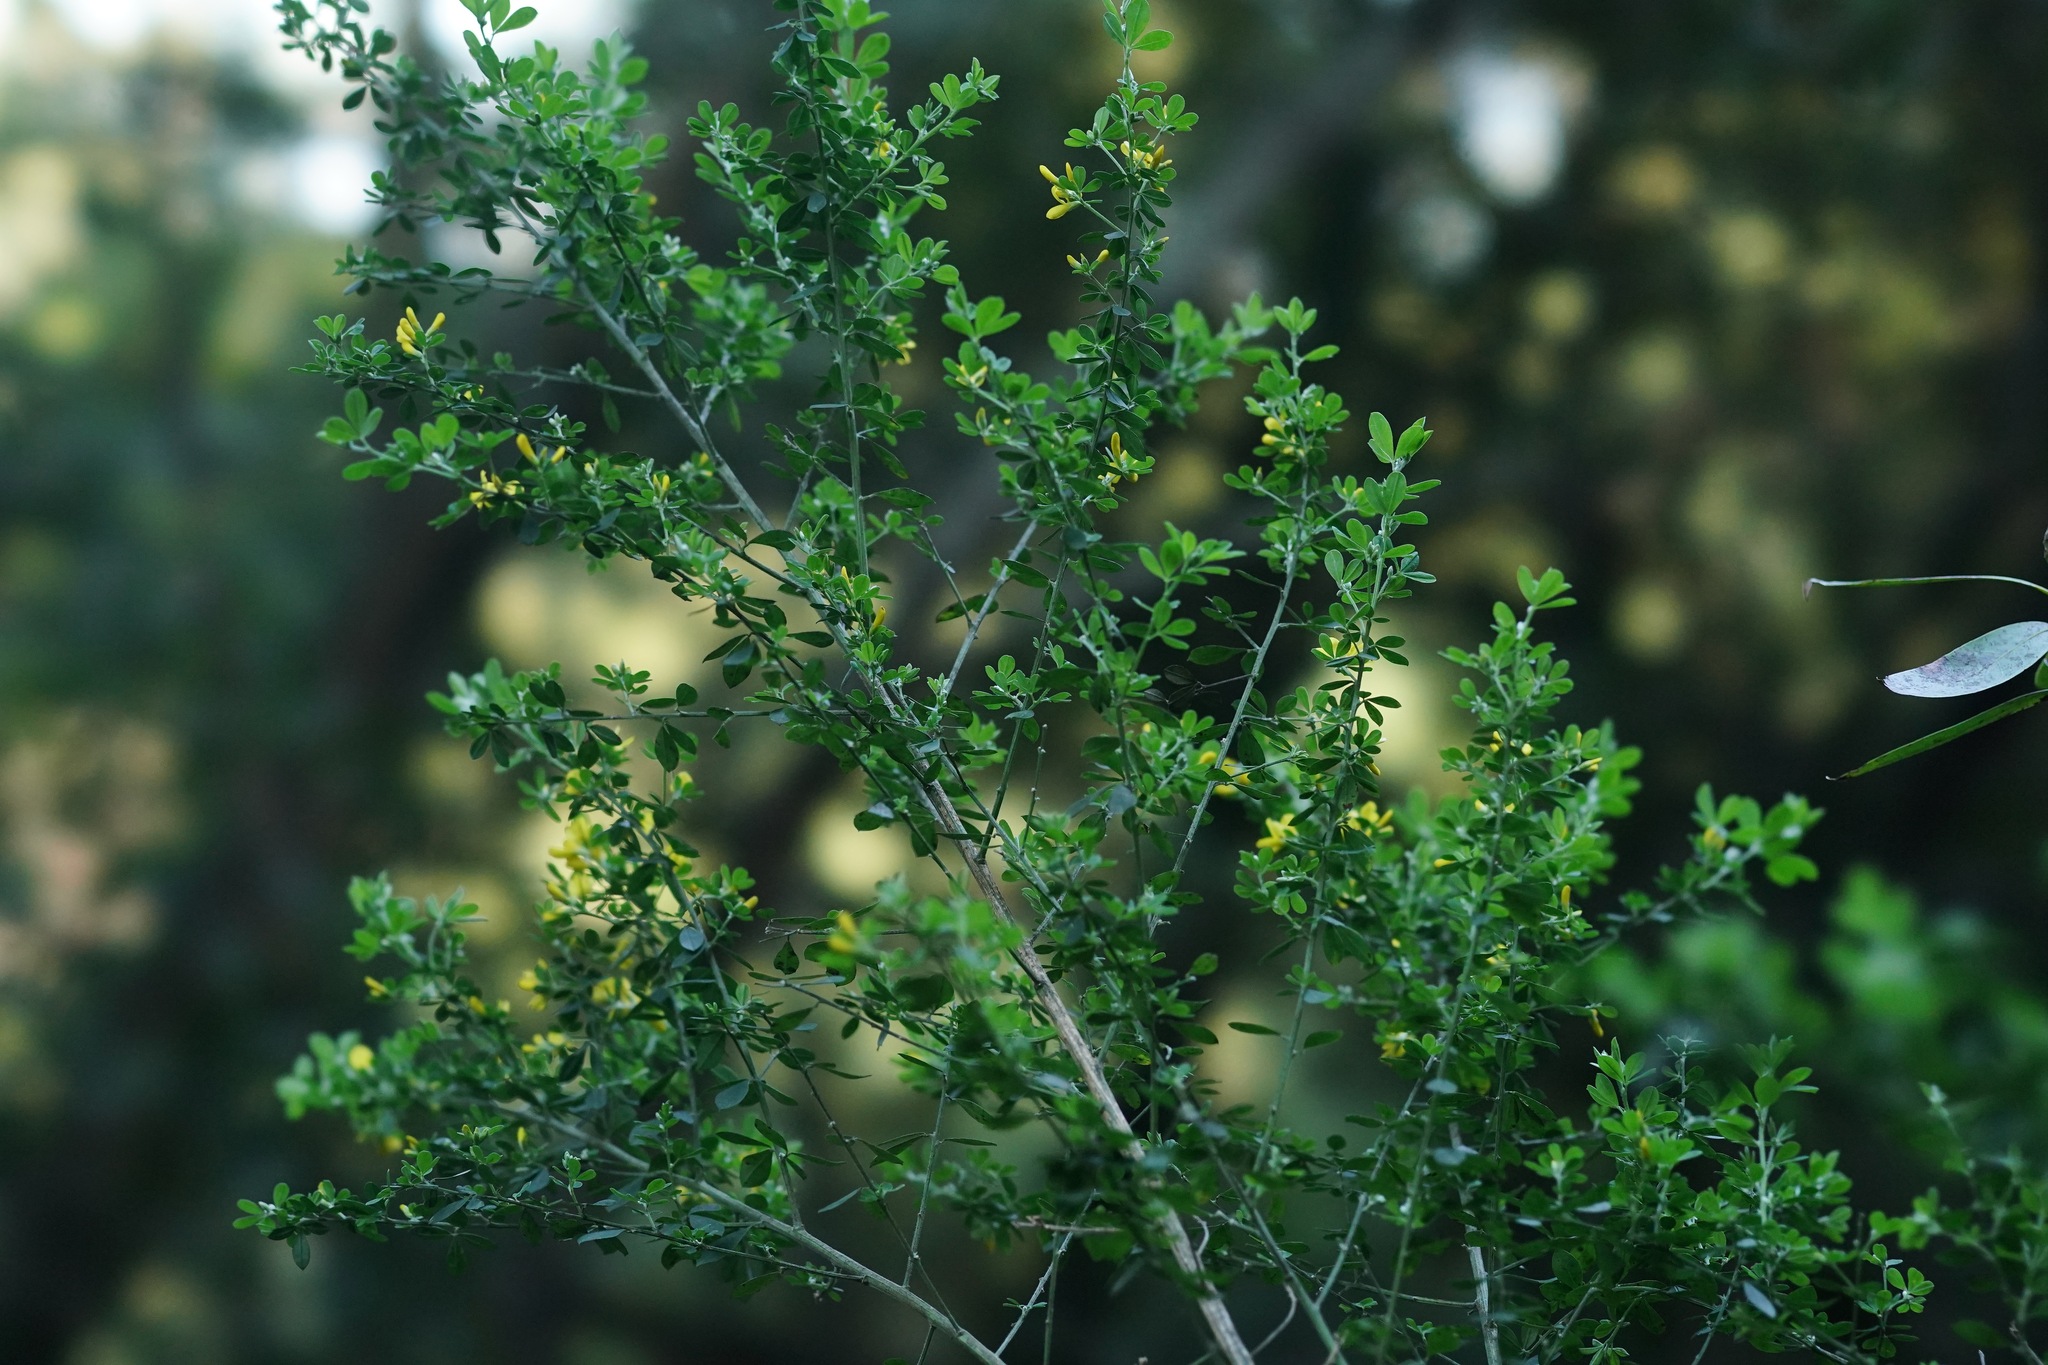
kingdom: Plantae
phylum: Tracheophyta
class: Magnoliopsida
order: Fabales
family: Fabaceae
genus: Genista
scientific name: Genista monspessulana
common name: Montpellier broom
